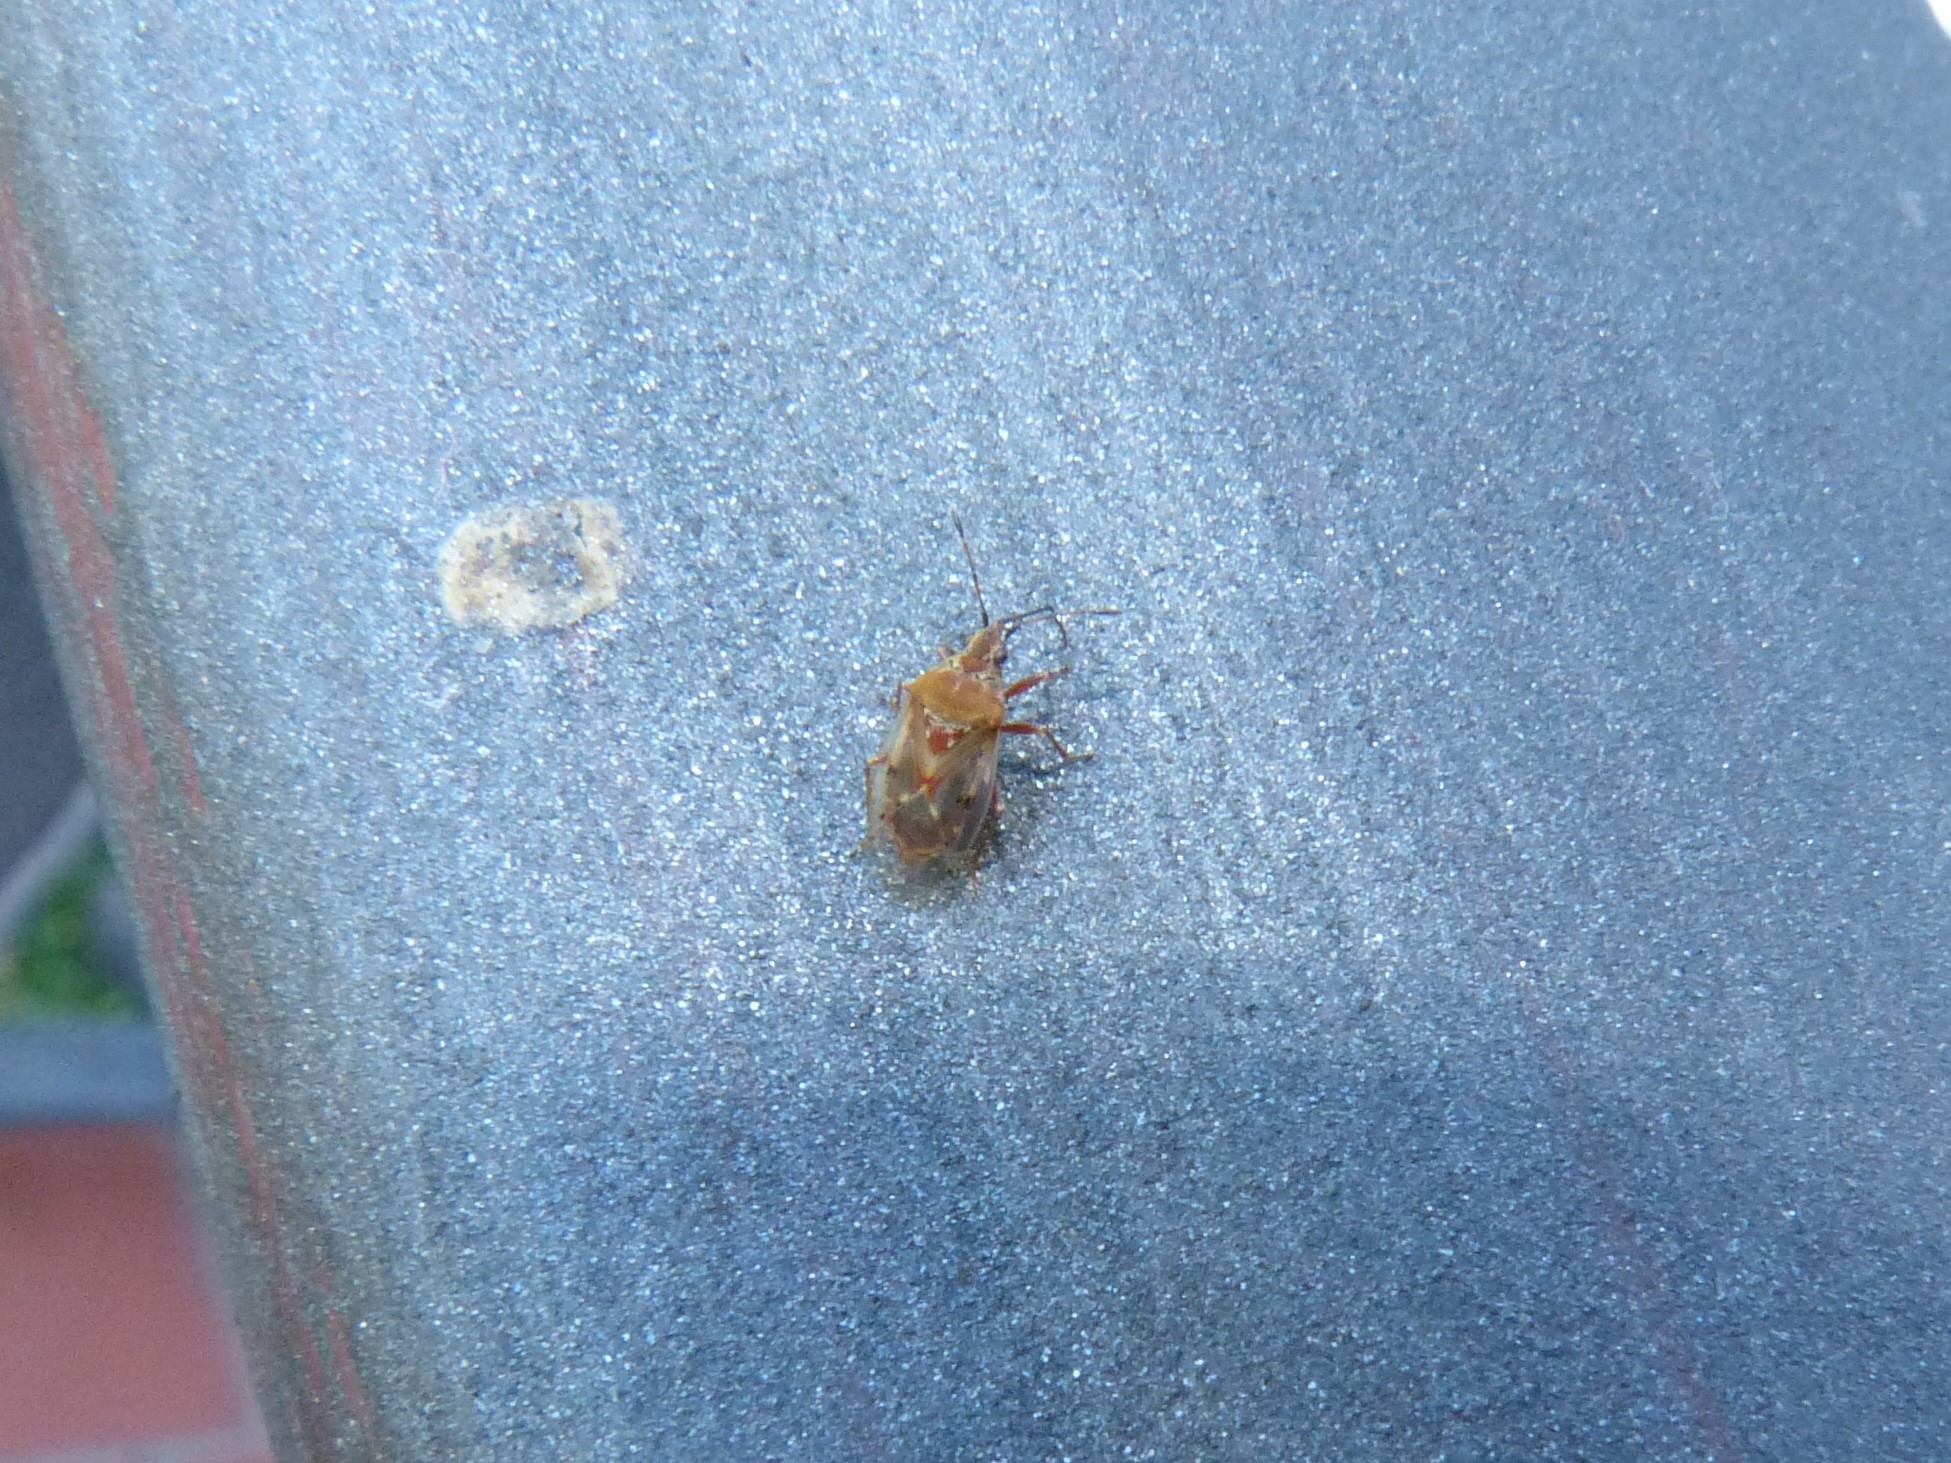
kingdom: Animalia
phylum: Arthropoda
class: Insecta
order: Hemiptera
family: Lygaeidae
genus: Kleidocerys
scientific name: Kleidocerys resedae
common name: Birch catkin bug
